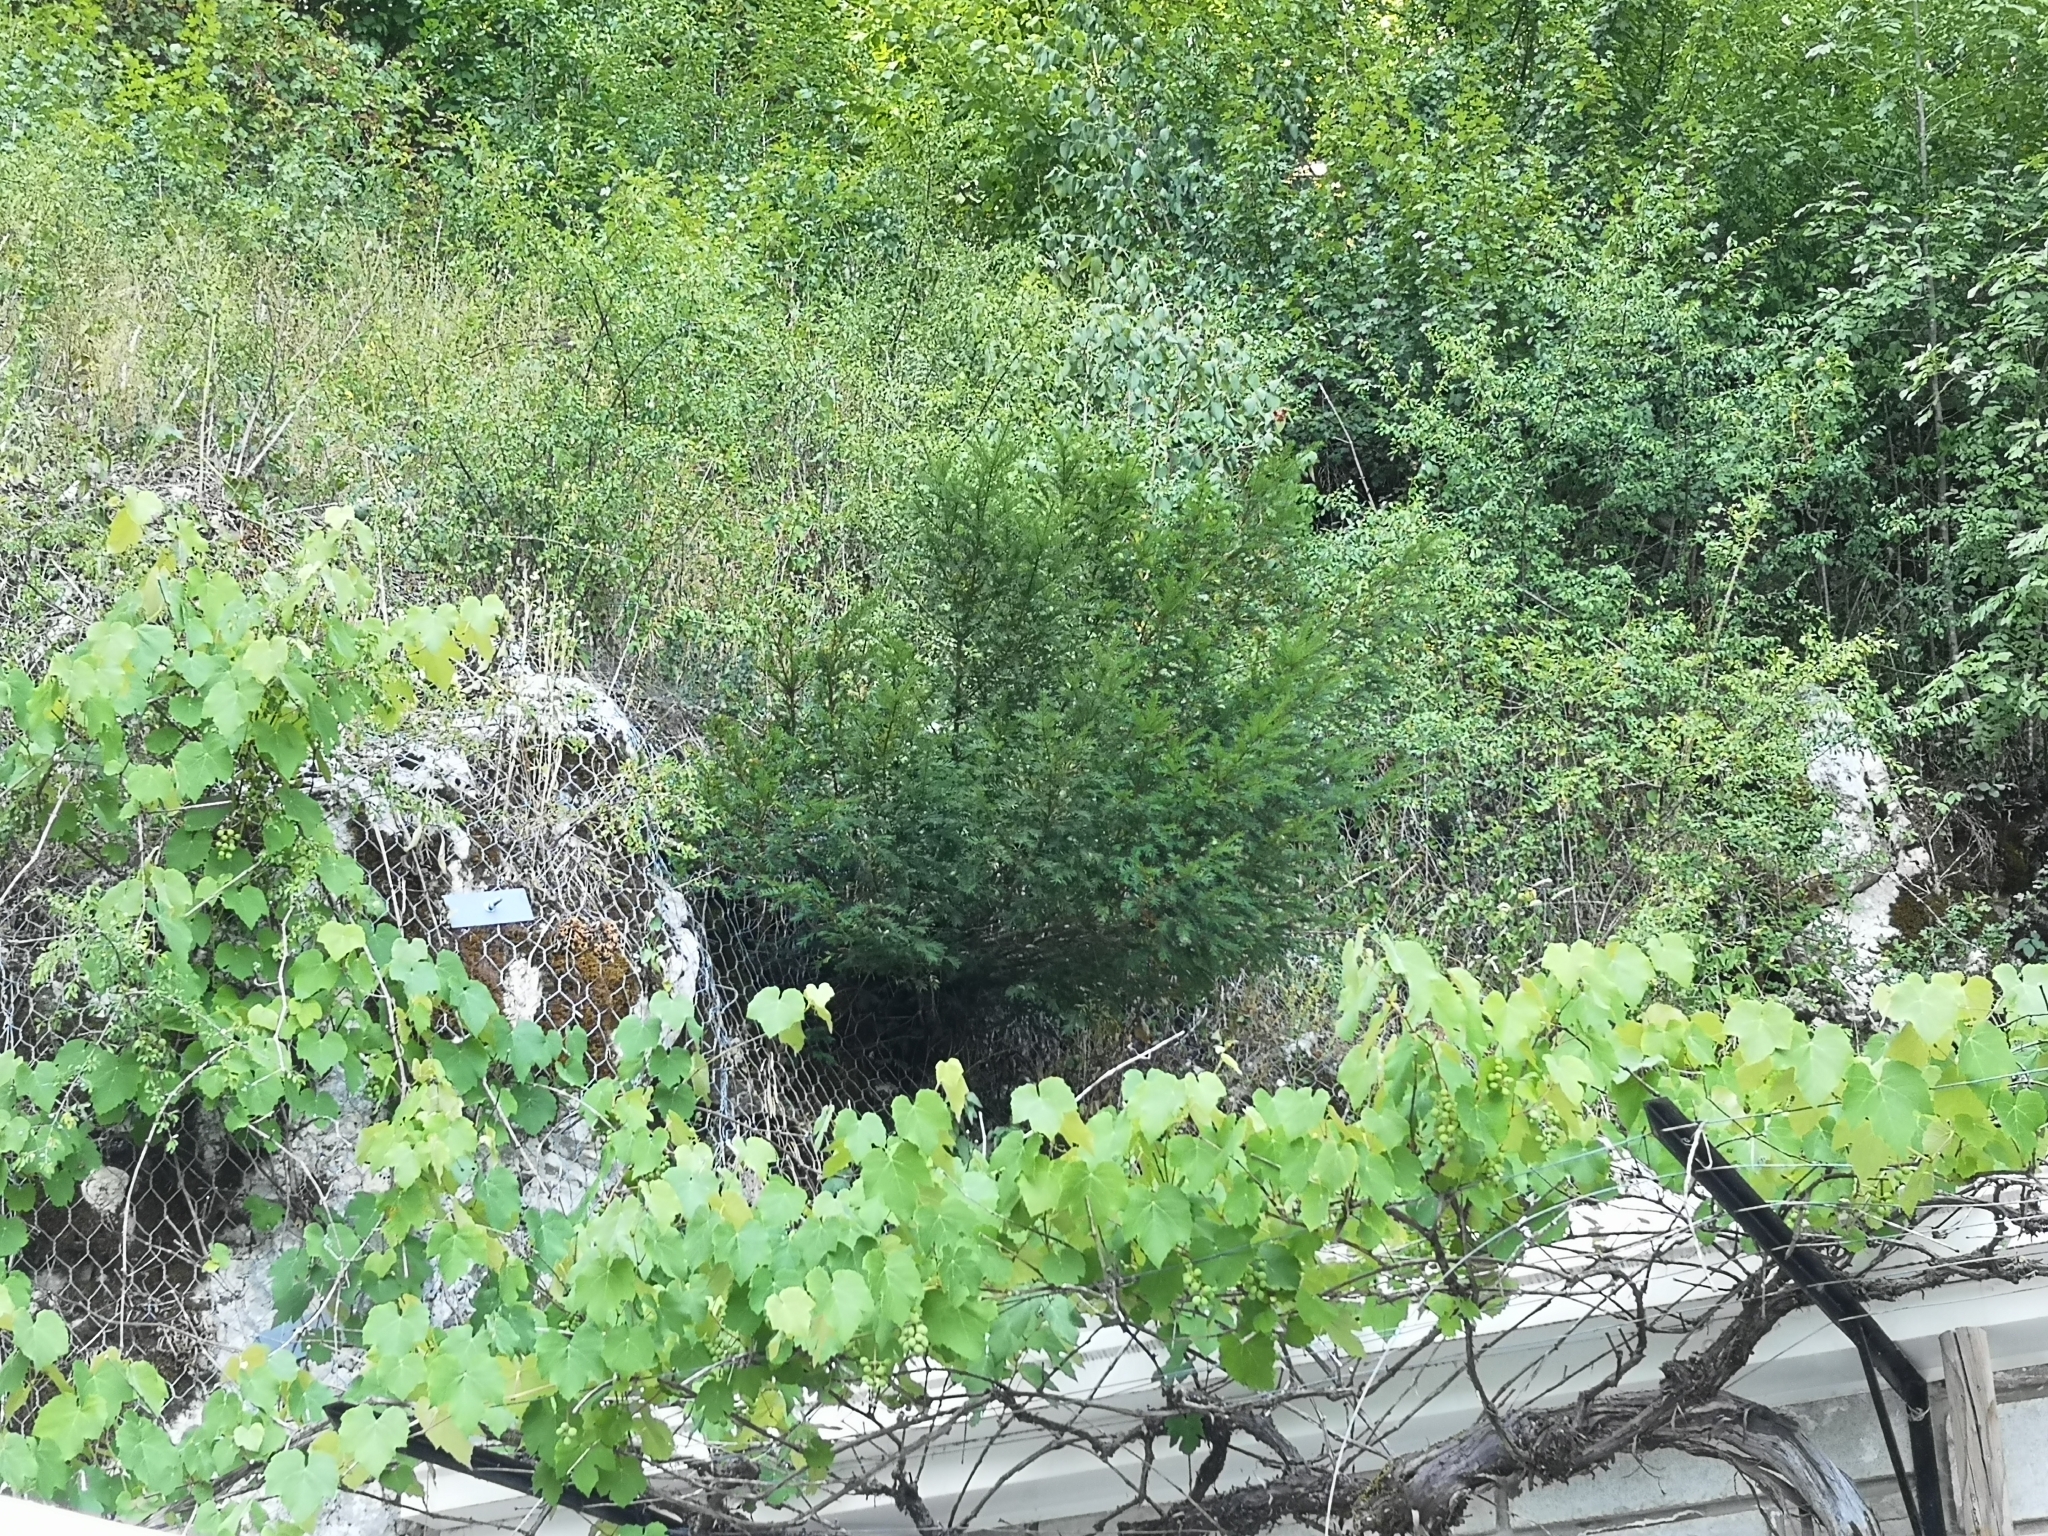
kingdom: Plantae
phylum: Tracheophyta
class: Pinopsida
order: Pinales
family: Taxaceae
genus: Taxus
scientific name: Taxus baccata
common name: Yew
